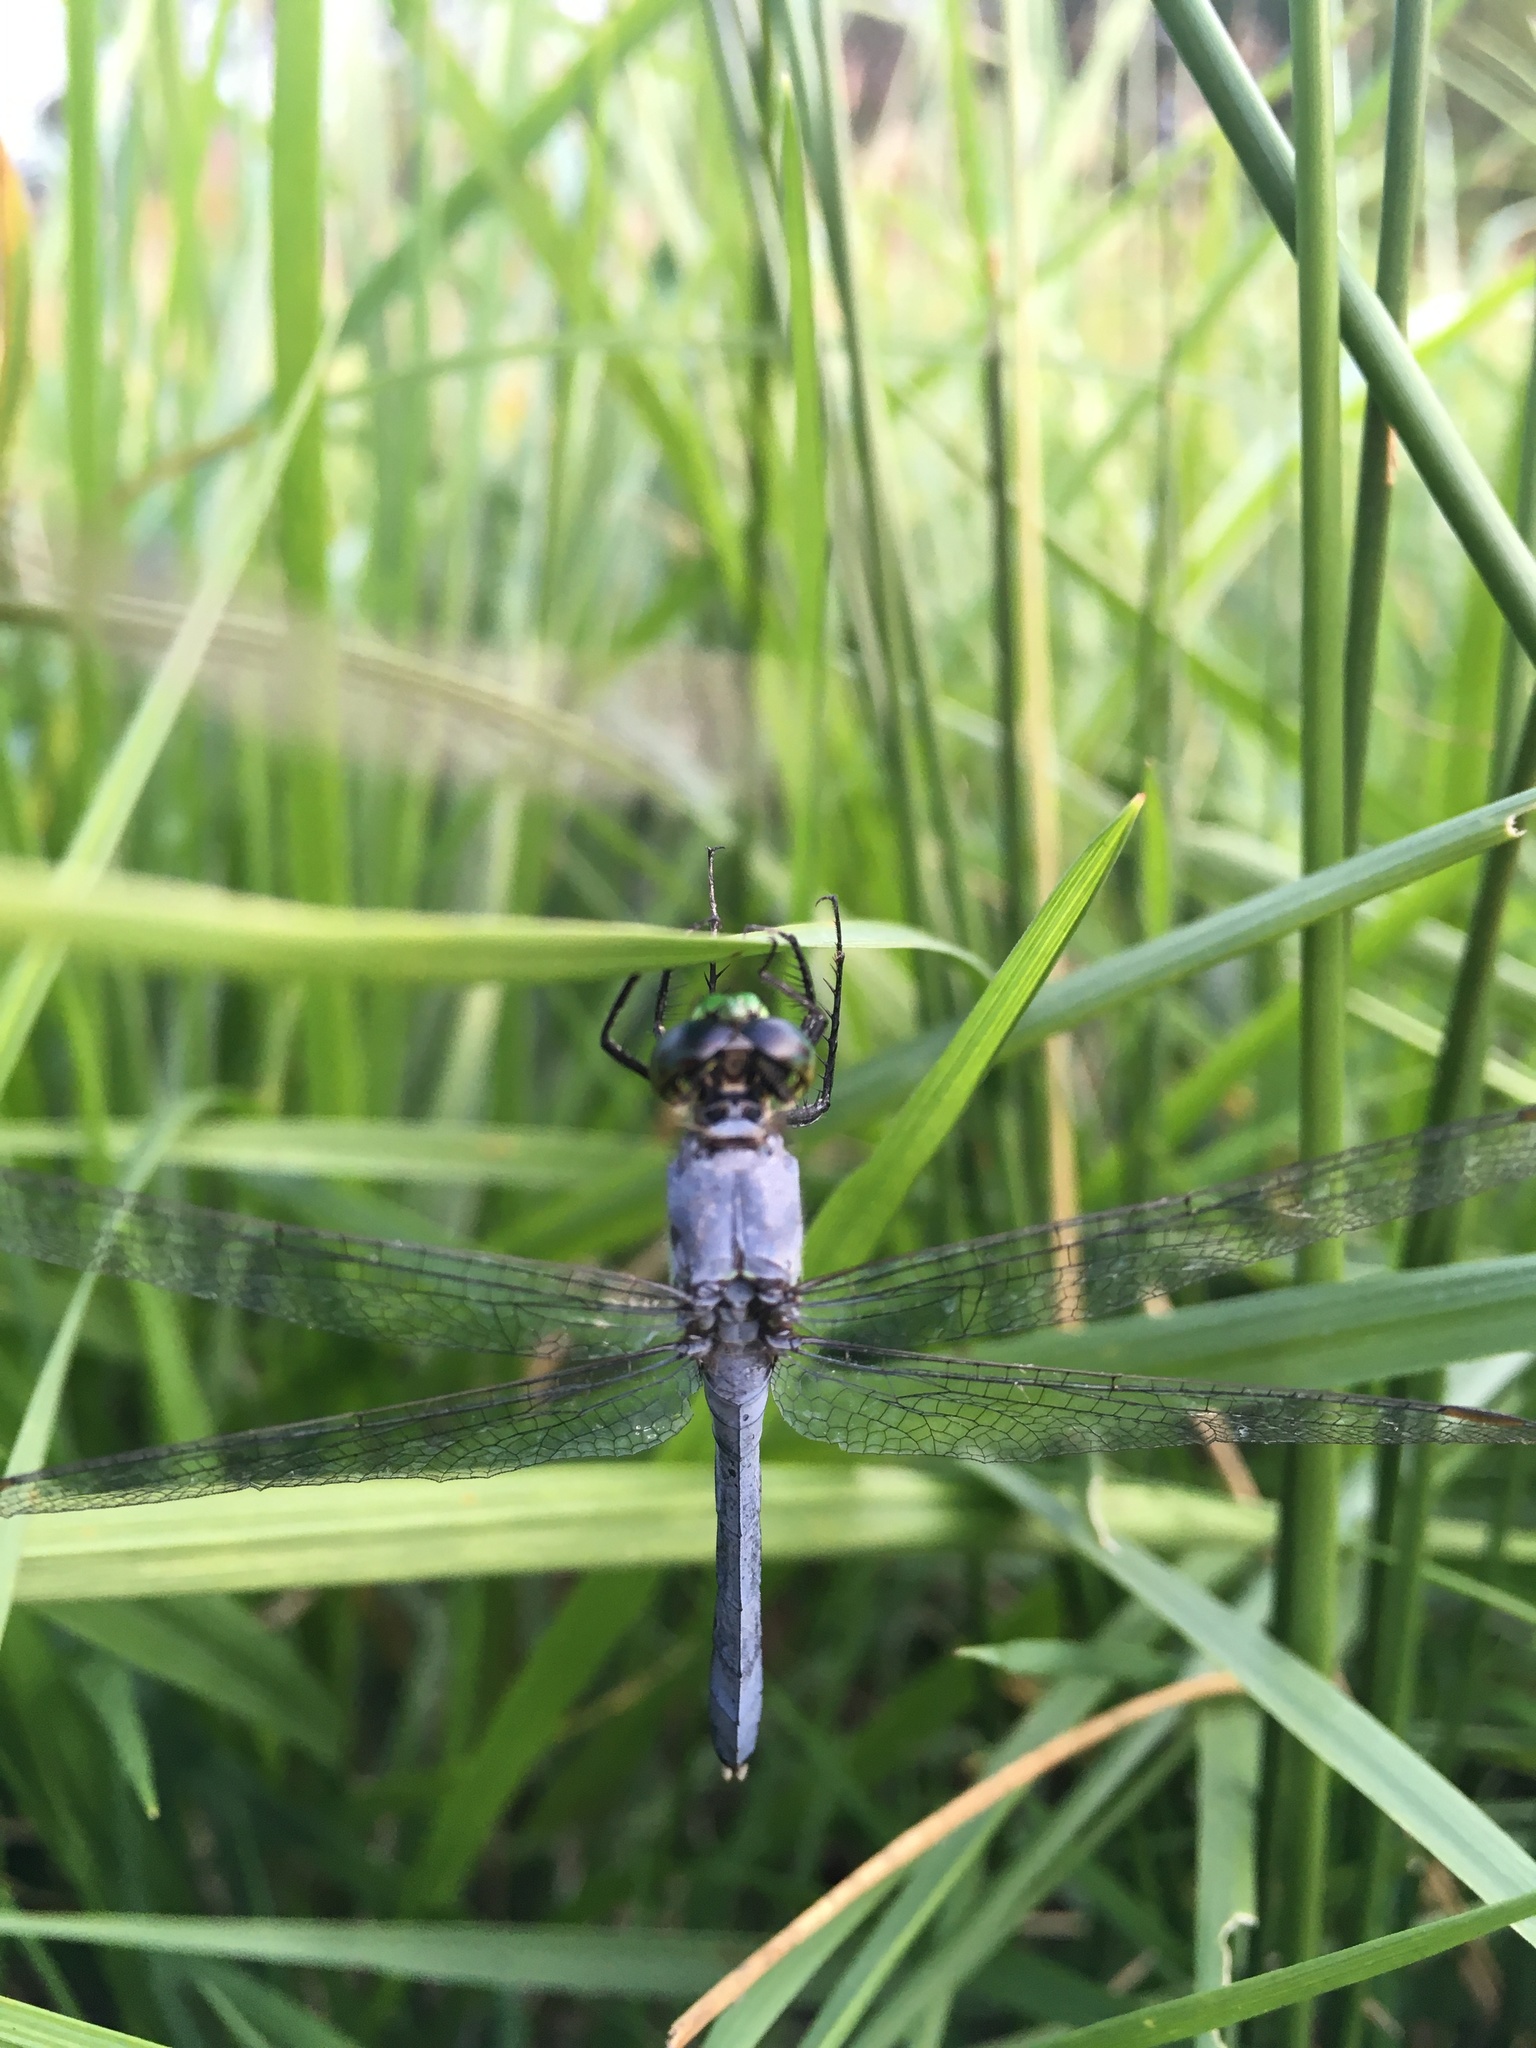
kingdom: Animalia
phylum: Arthropoda
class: Insecta
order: Odonata
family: Libellulidae
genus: Erythemis
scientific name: Erythemis simplicicollis
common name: Eastern pondhawk
